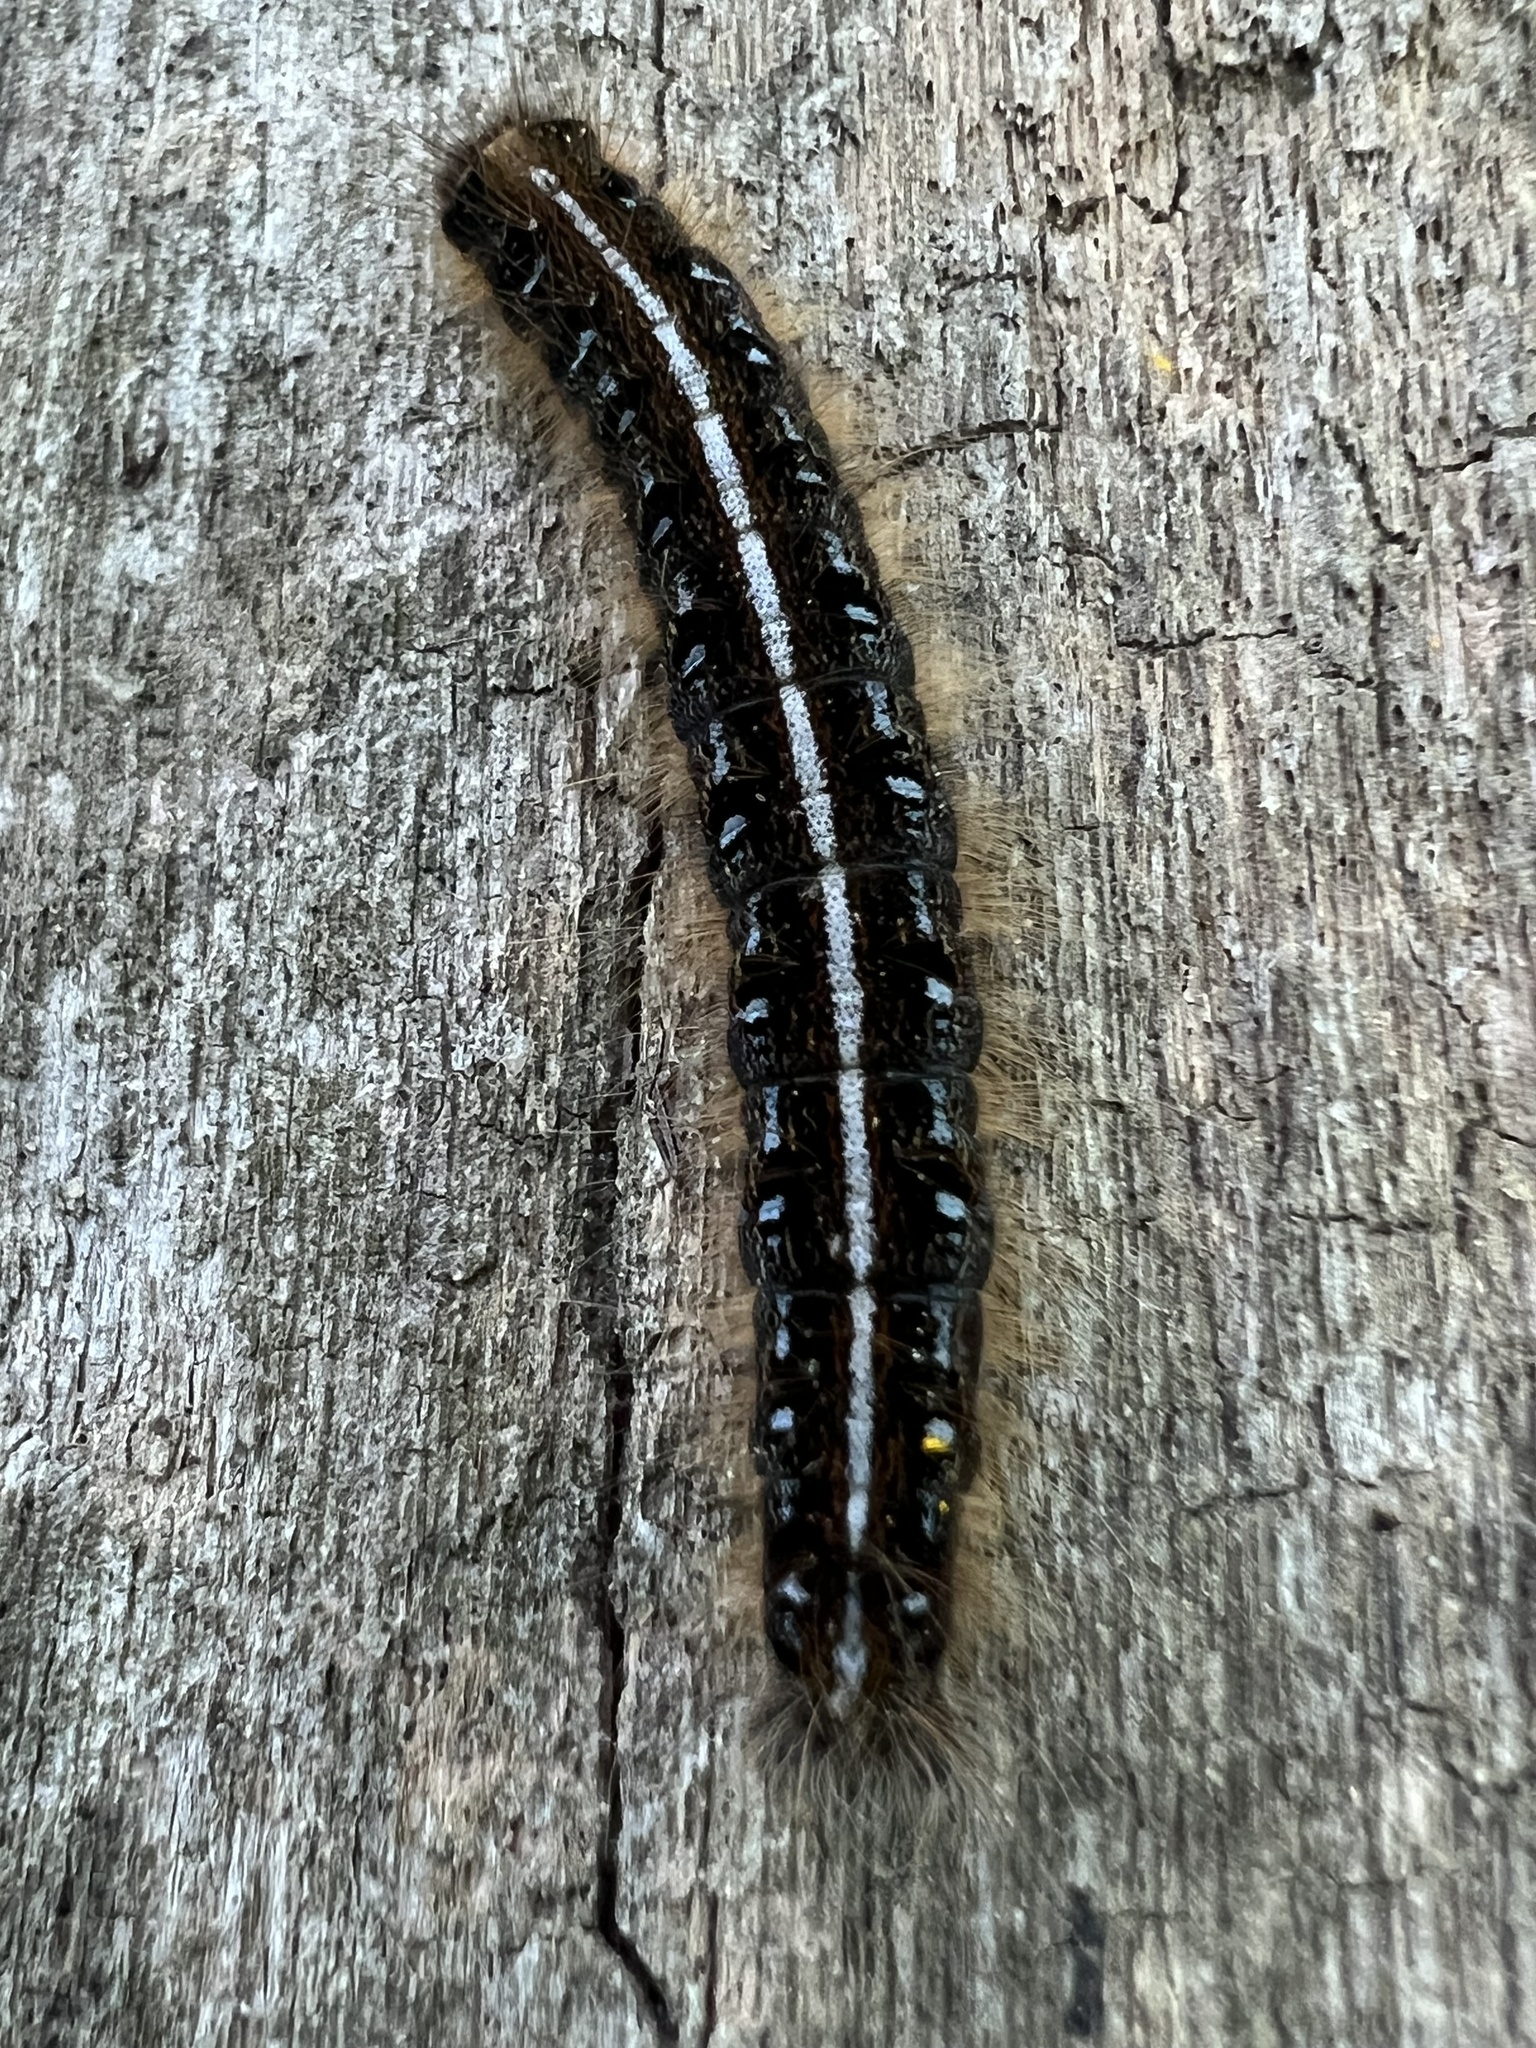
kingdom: Animalia
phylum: Arthropoda
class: Insecta
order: Lepidoptera
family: Lasiocampidae
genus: Malacosoma
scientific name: Malacosoma americana
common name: Eastern tent caterpillar moth
